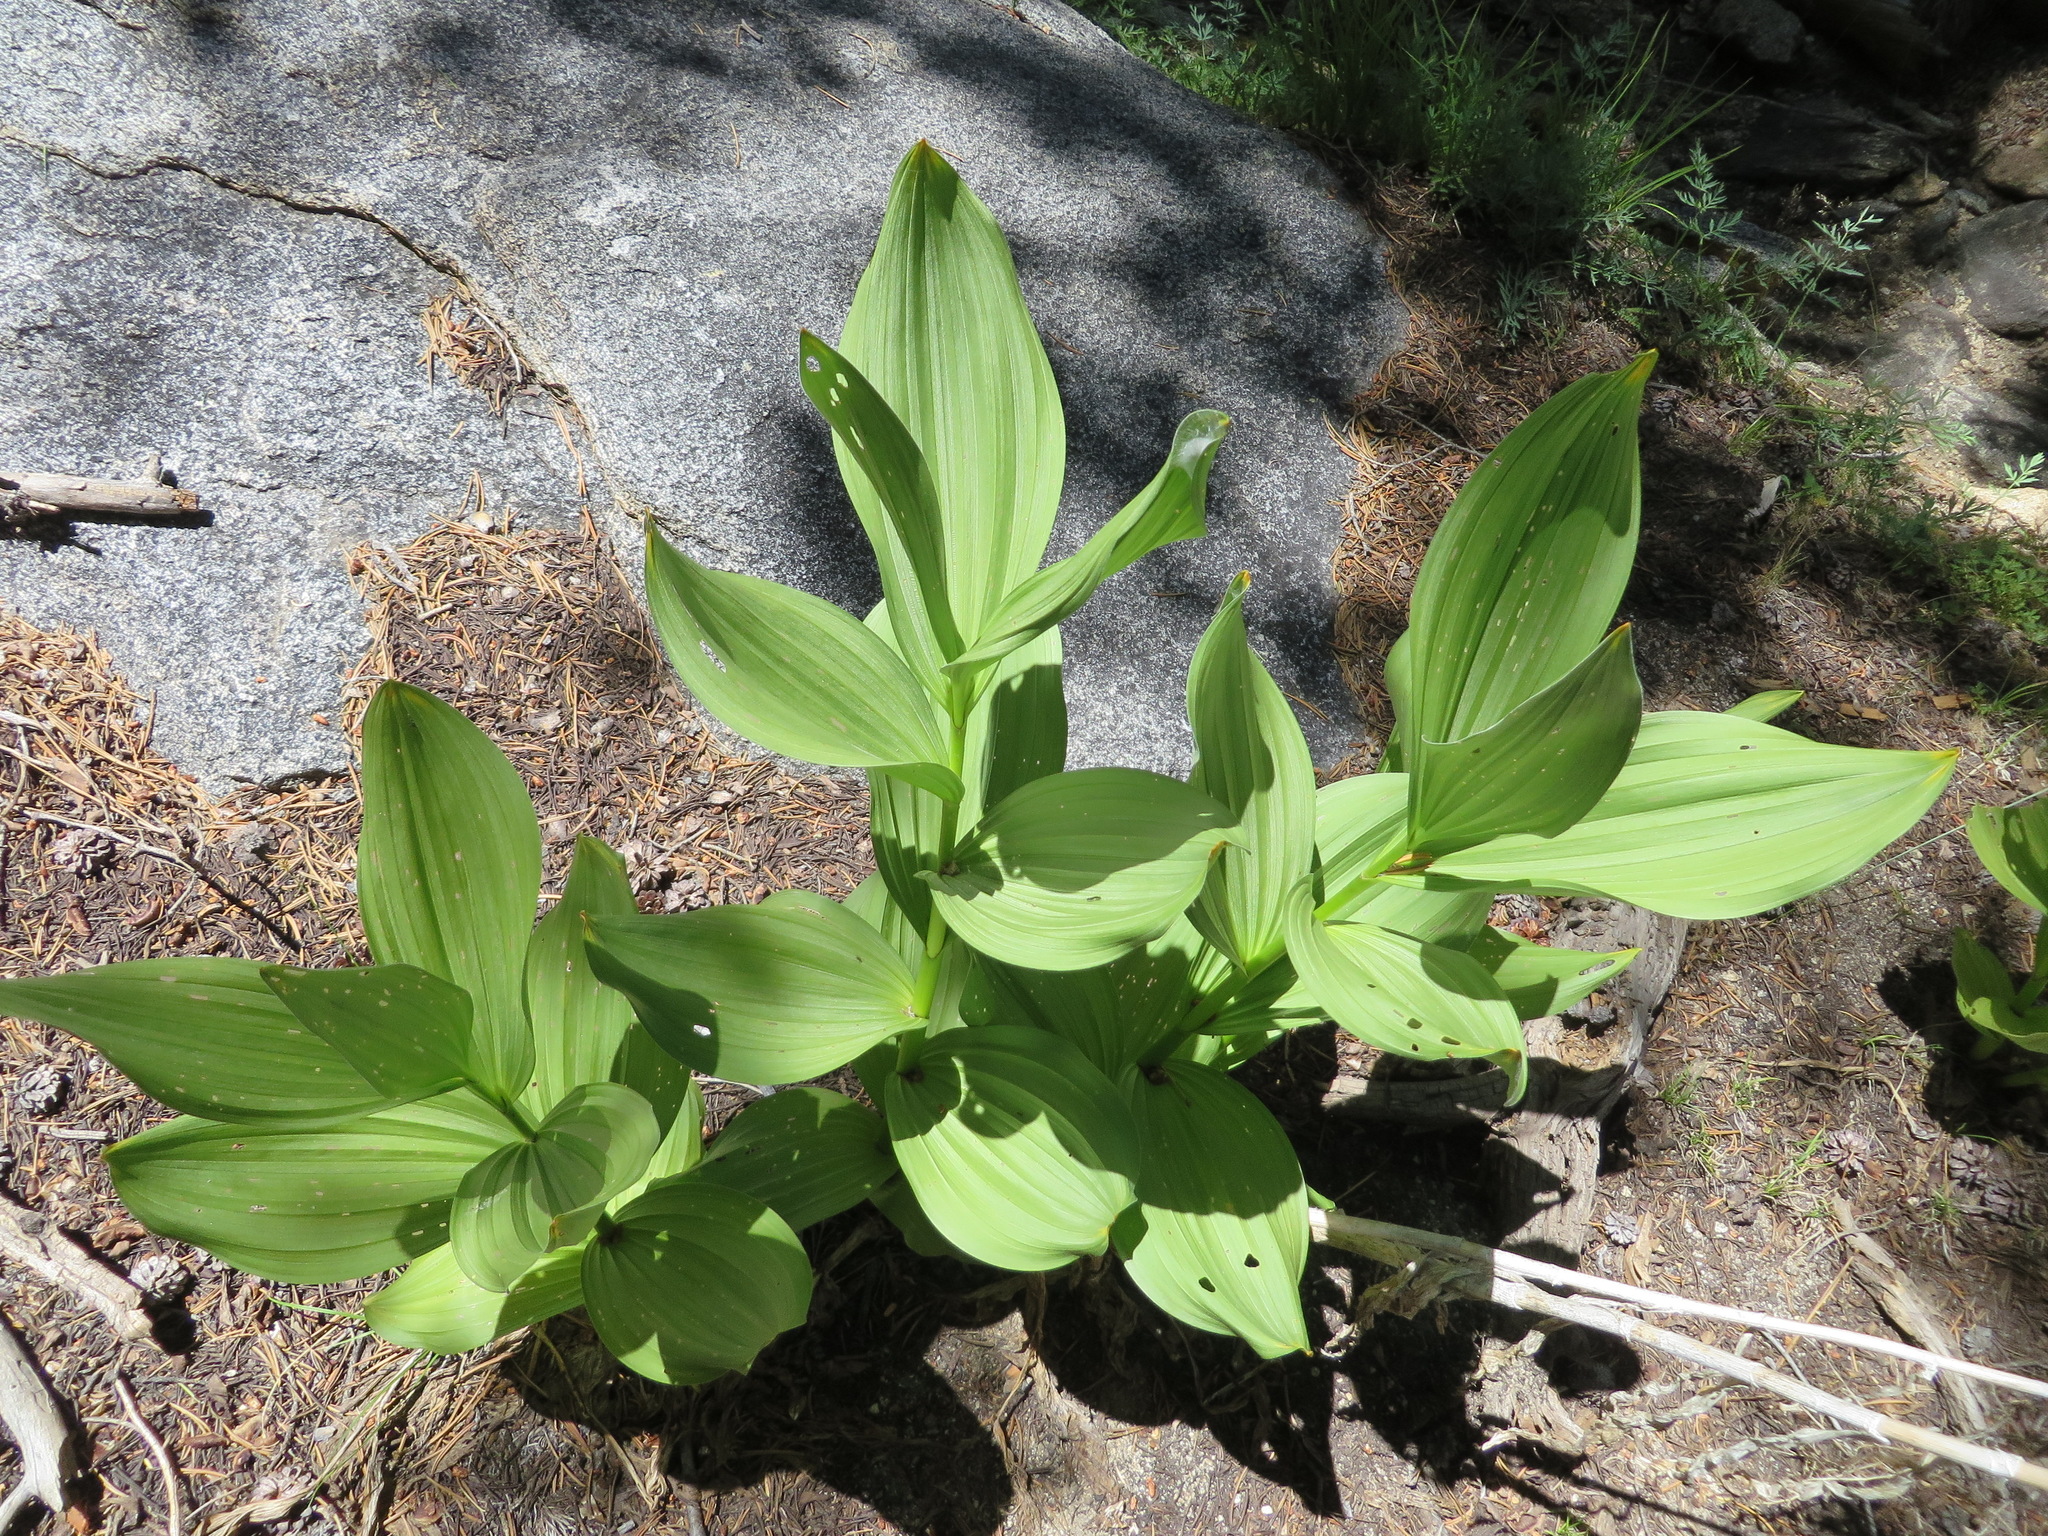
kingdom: Plantae
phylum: Tracheophyta
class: Liliopsida
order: Liliales
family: Melanthiaceae
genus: Veratrum
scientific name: Veratrum californicum
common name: California veratrum
